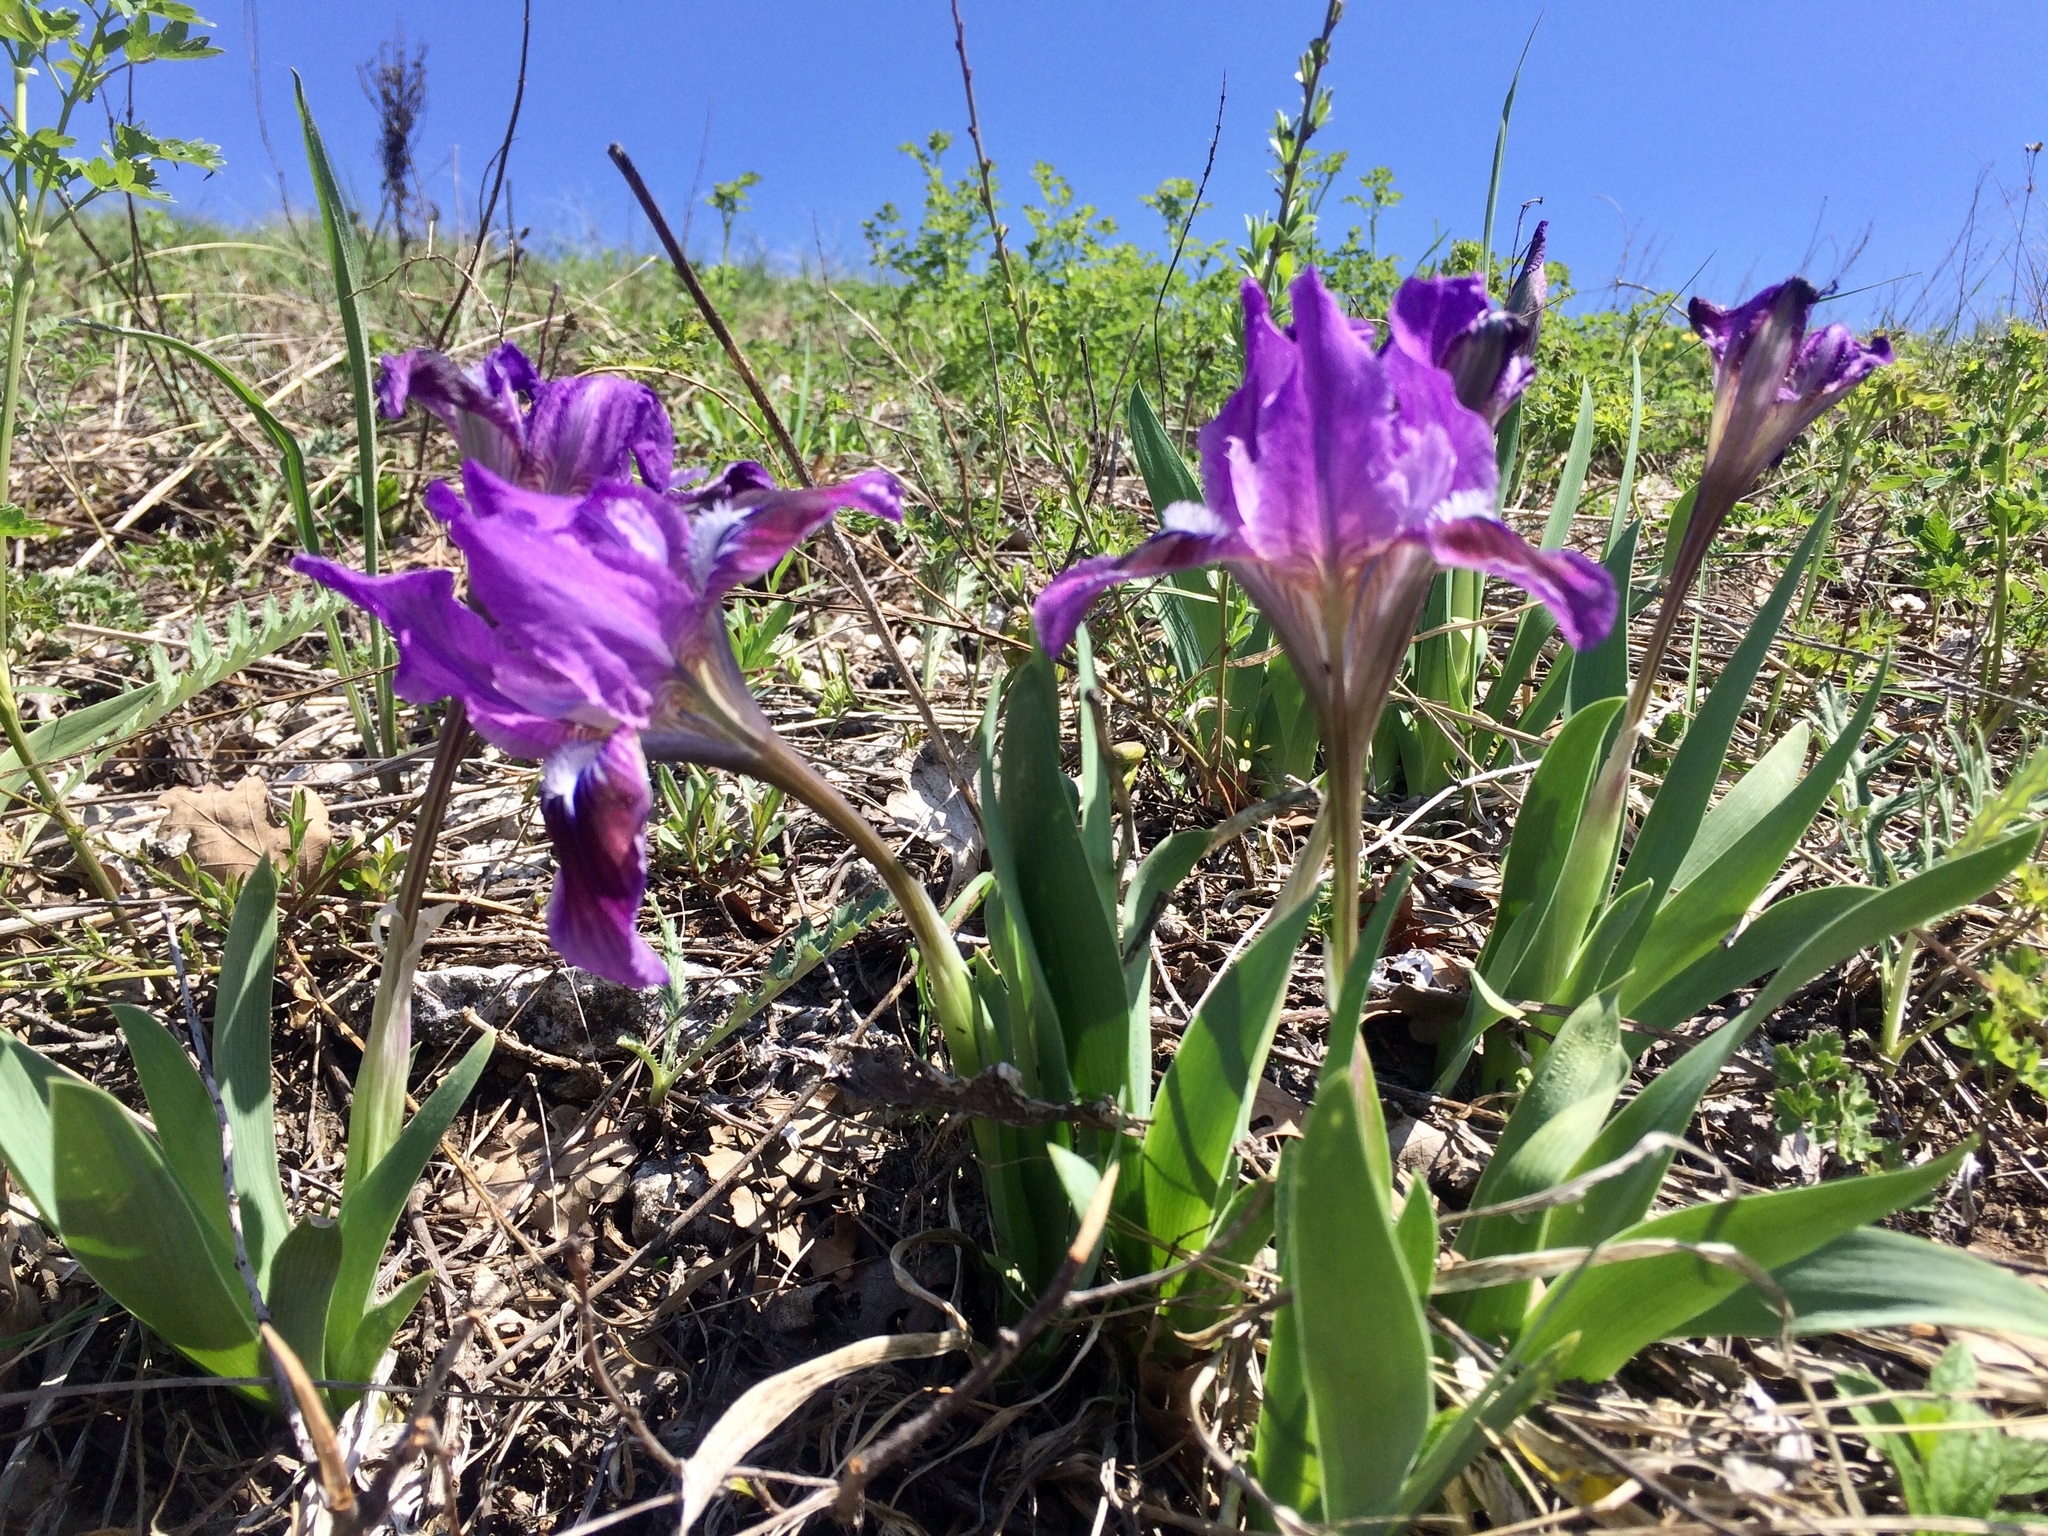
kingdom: Plantae
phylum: Tracheophyta
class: Liliopsida
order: Asparagales
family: Iridaceae
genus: Iris
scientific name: Iris pumila
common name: Dwarf iris
